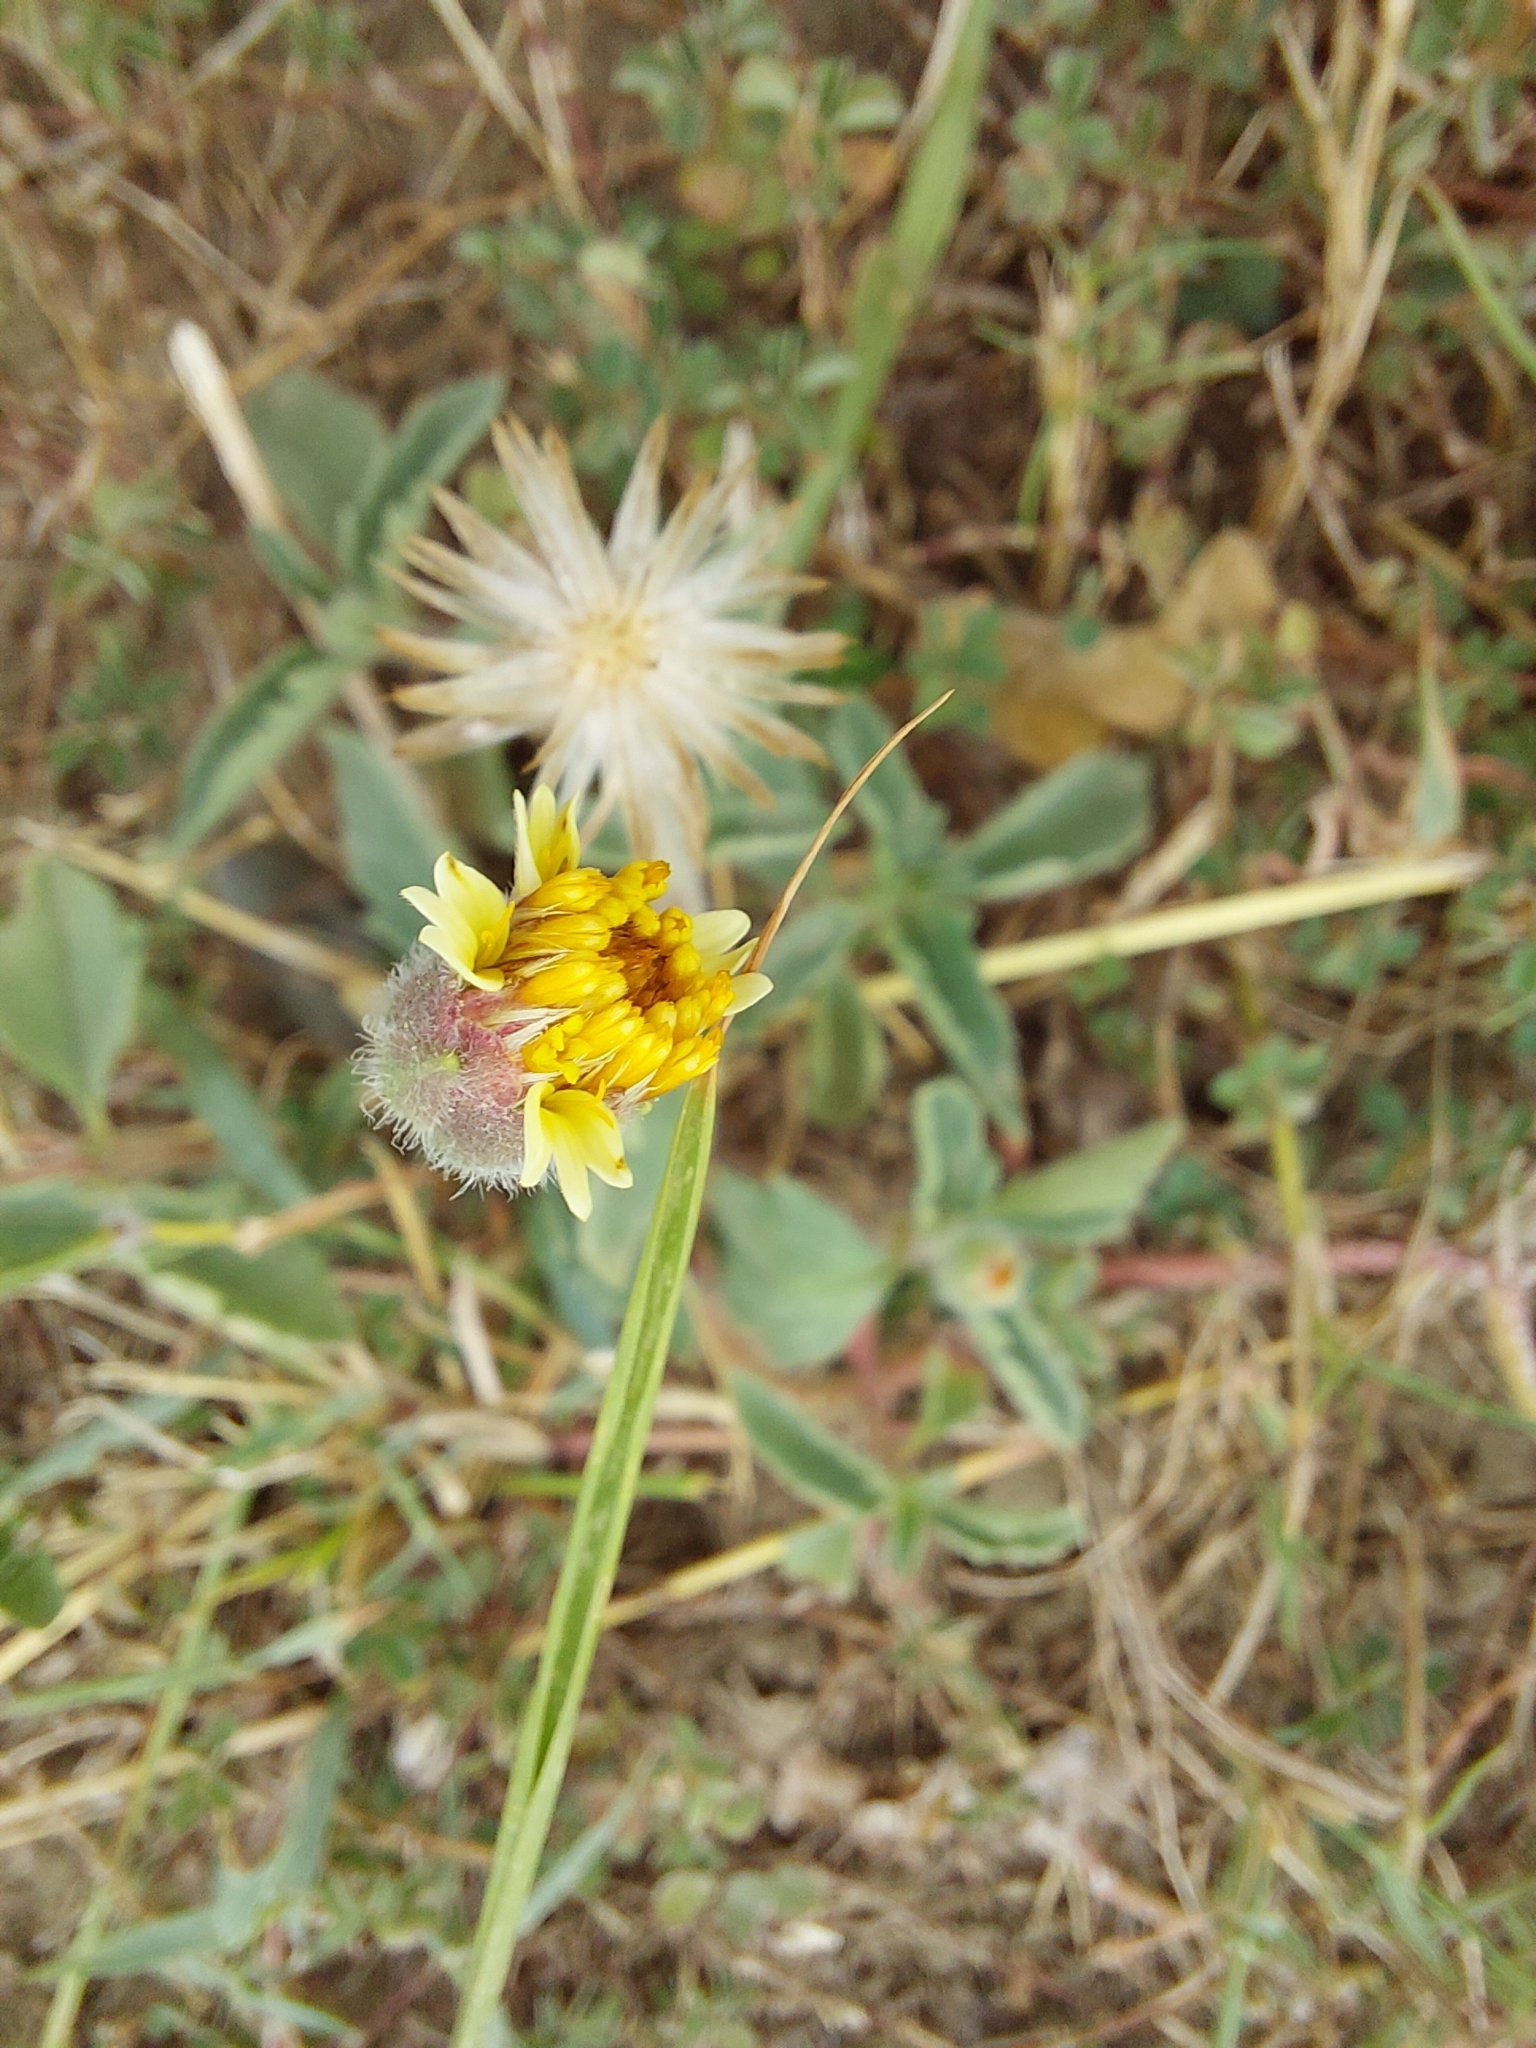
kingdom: Plantae
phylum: Tracheophyta
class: Magnoliopsida
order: Asterales
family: Asteraceae
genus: Tridax
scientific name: Tridax procumbens
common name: Coatbuttons
